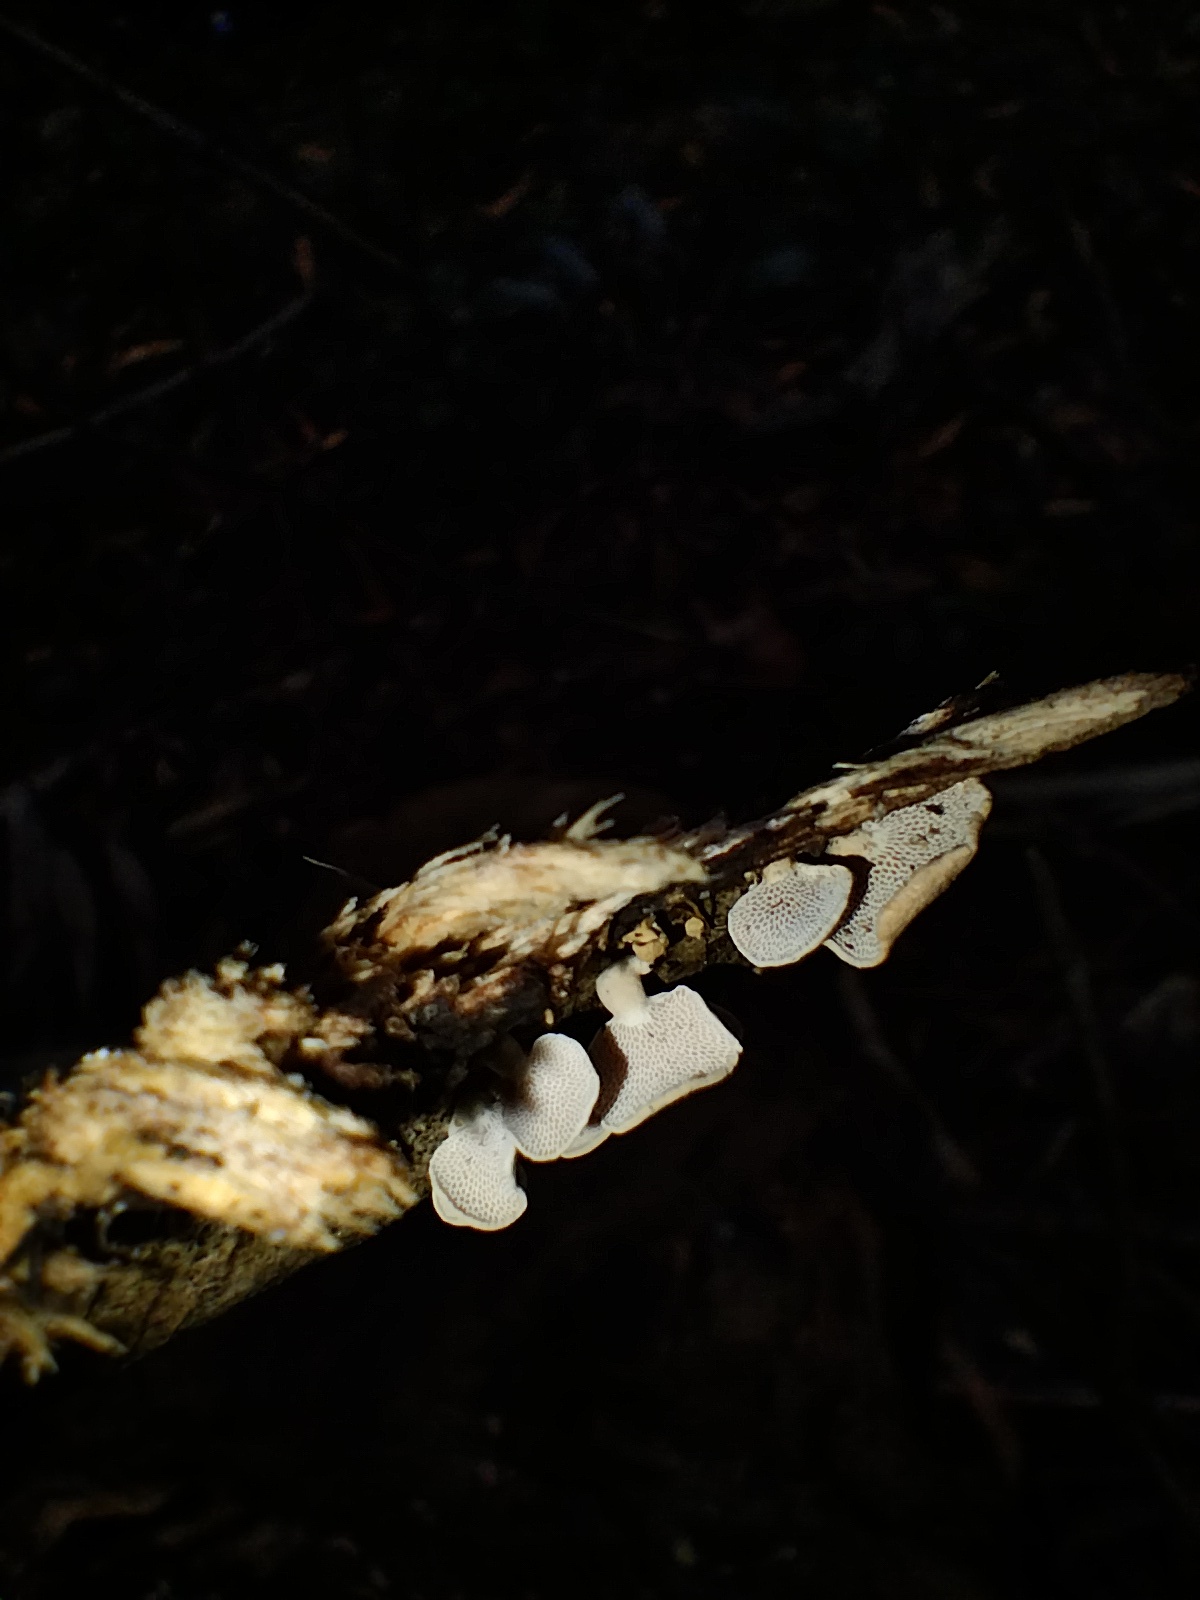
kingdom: Fungi
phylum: Basidiomycota
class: Agaricomycetes
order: Agaricales
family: Mycenaceae
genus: Panellus
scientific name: Panellus luxfilamentus
